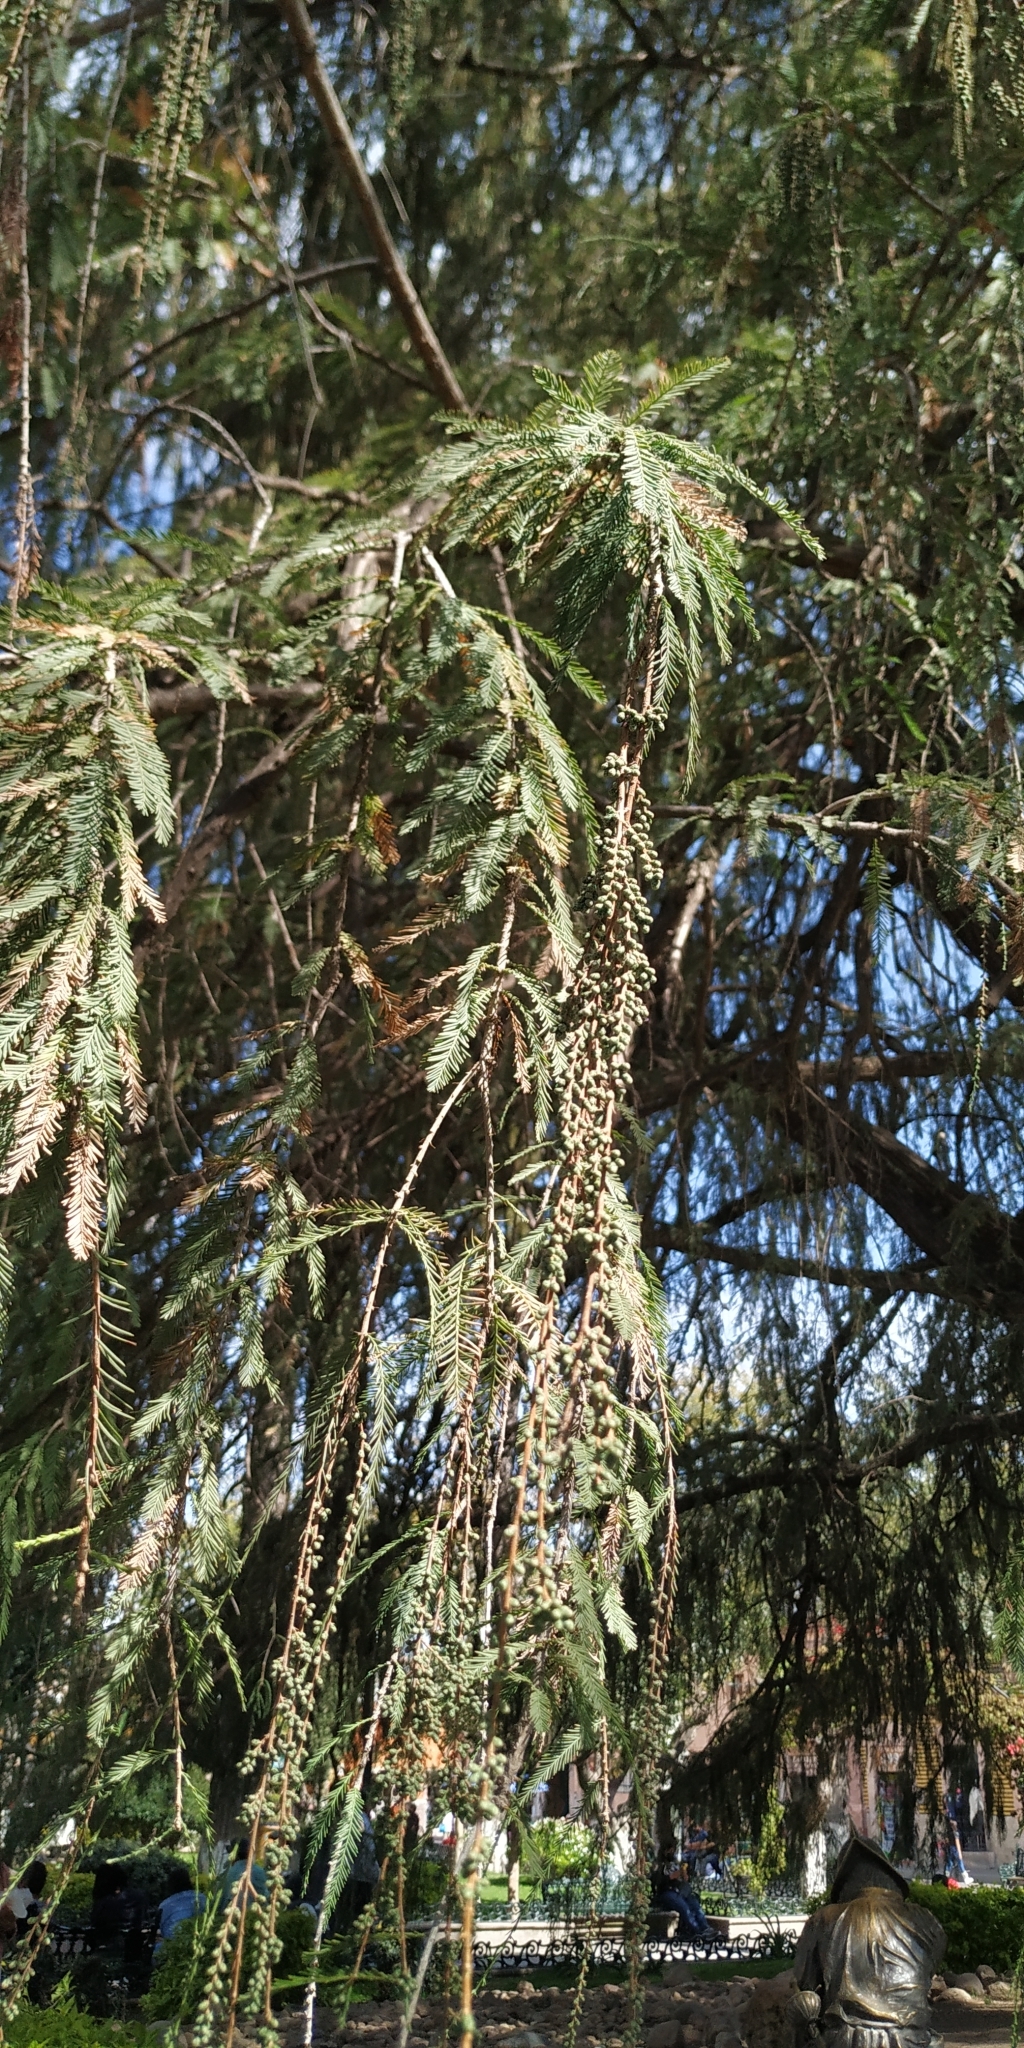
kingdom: Plantae
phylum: Tracheophyta
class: Pinopsida
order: Pinales
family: Cupressaceae
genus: Taxodium
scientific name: Taxodium mucronatum
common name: Montezume bald cypress
